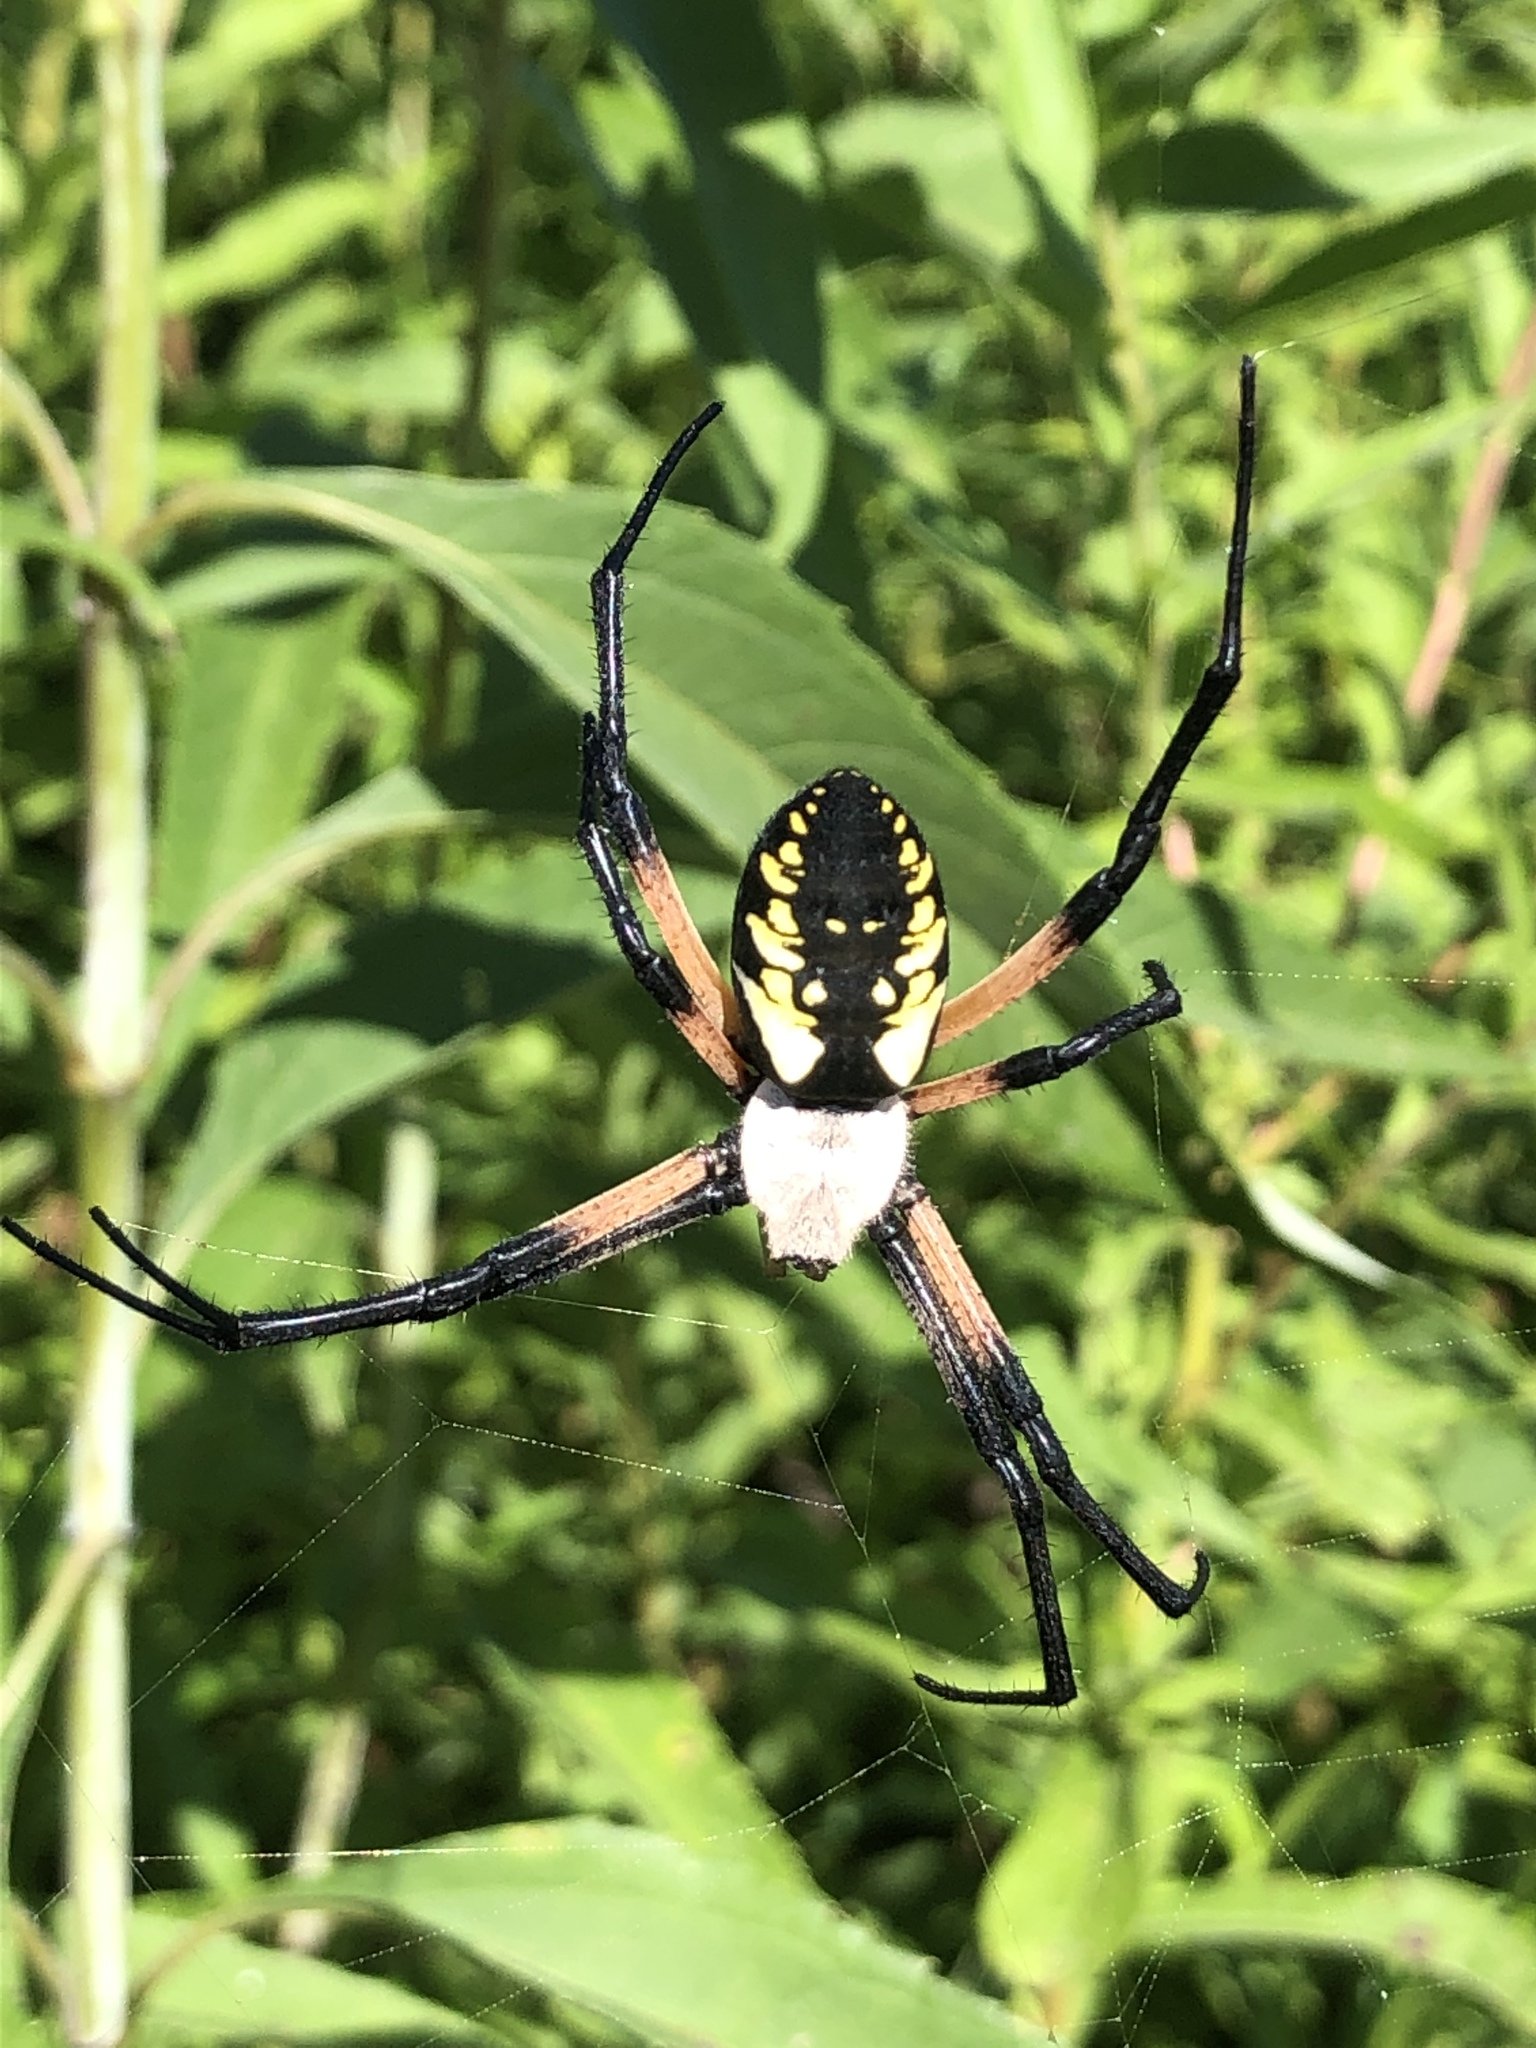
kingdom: Animalia
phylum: Arthropoda
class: Arachnida
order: Araneae
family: Araneidae
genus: Argiope
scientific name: Argiope aurantia
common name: Orb weavers
